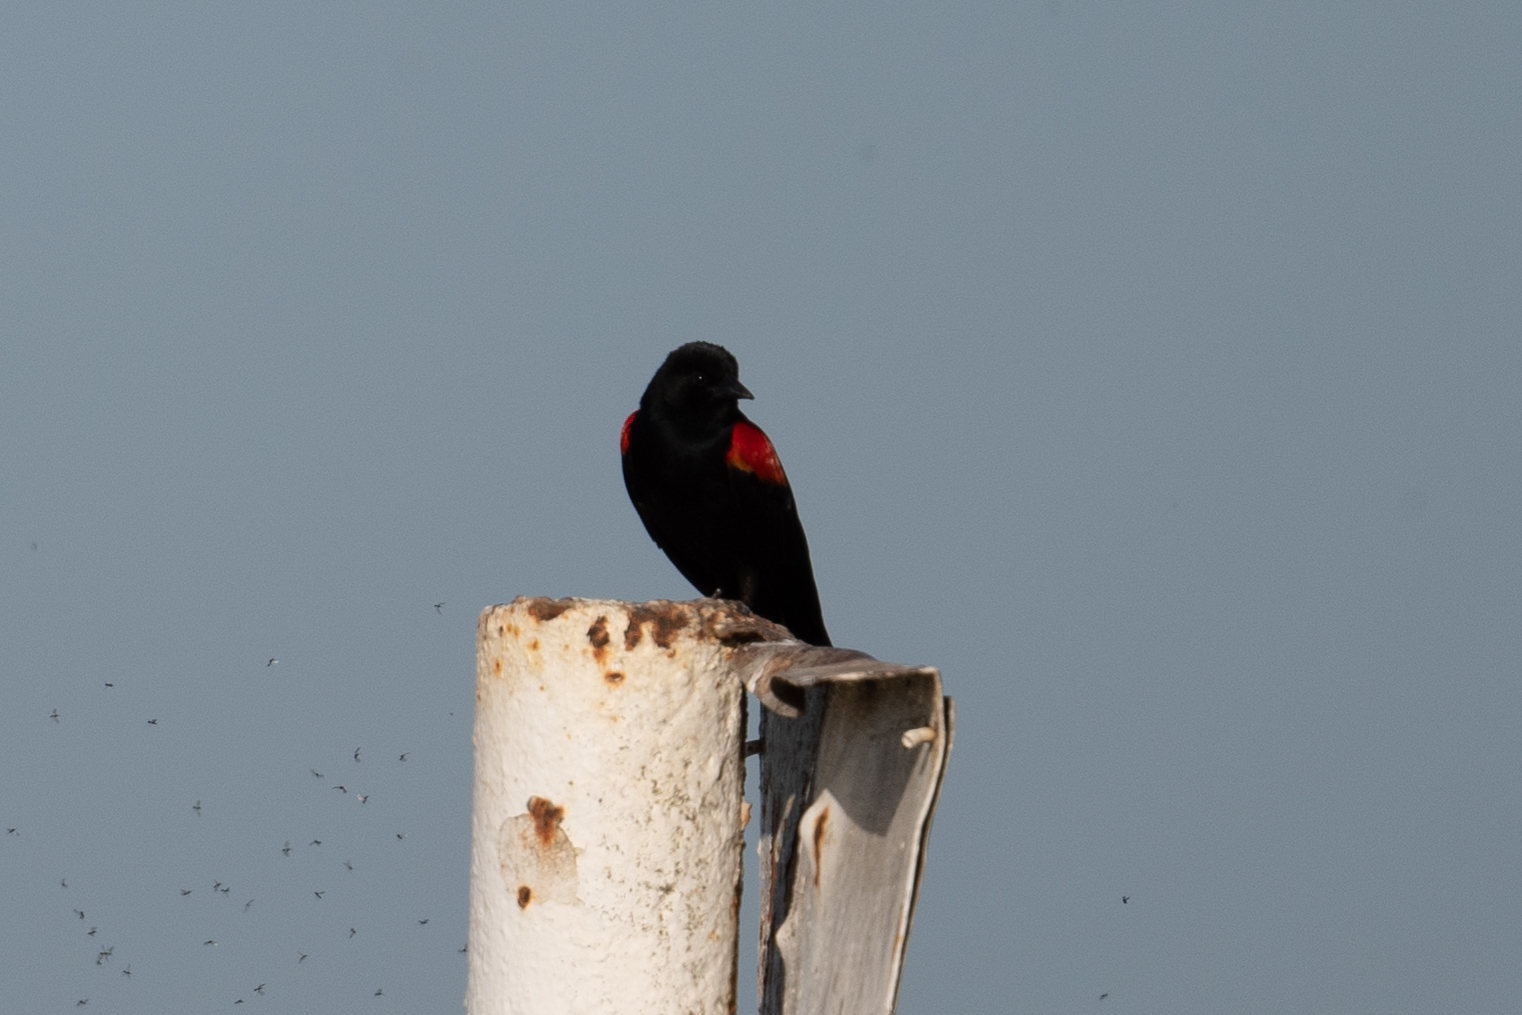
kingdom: Animalia
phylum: Chordata
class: Aves
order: Passeriformes
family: Icteridae
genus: Agelaius
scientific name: Agelaius phoeniceus
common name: Red-winged blackbird
